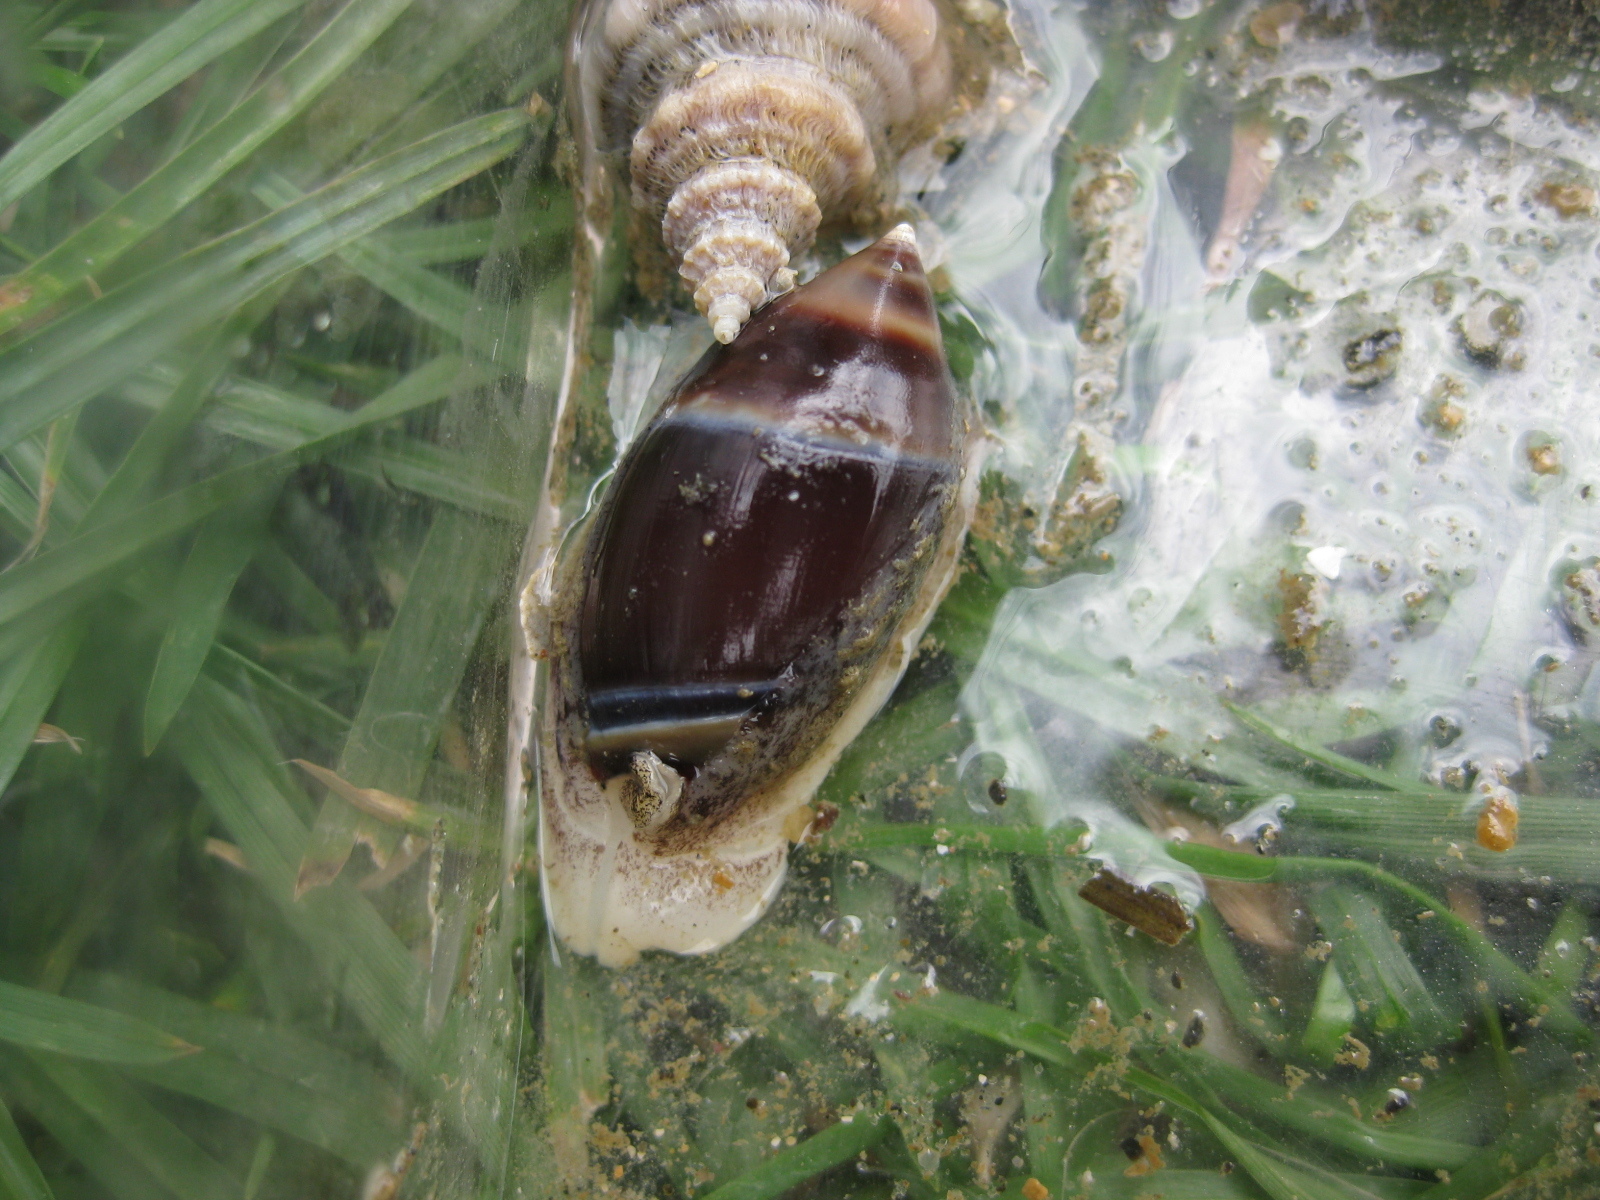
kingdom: Animalia
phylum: Mollusca
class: Gastropoda
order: Neogastropoda
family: Ancillariidae
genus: Amalda
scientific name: Amalda australis
